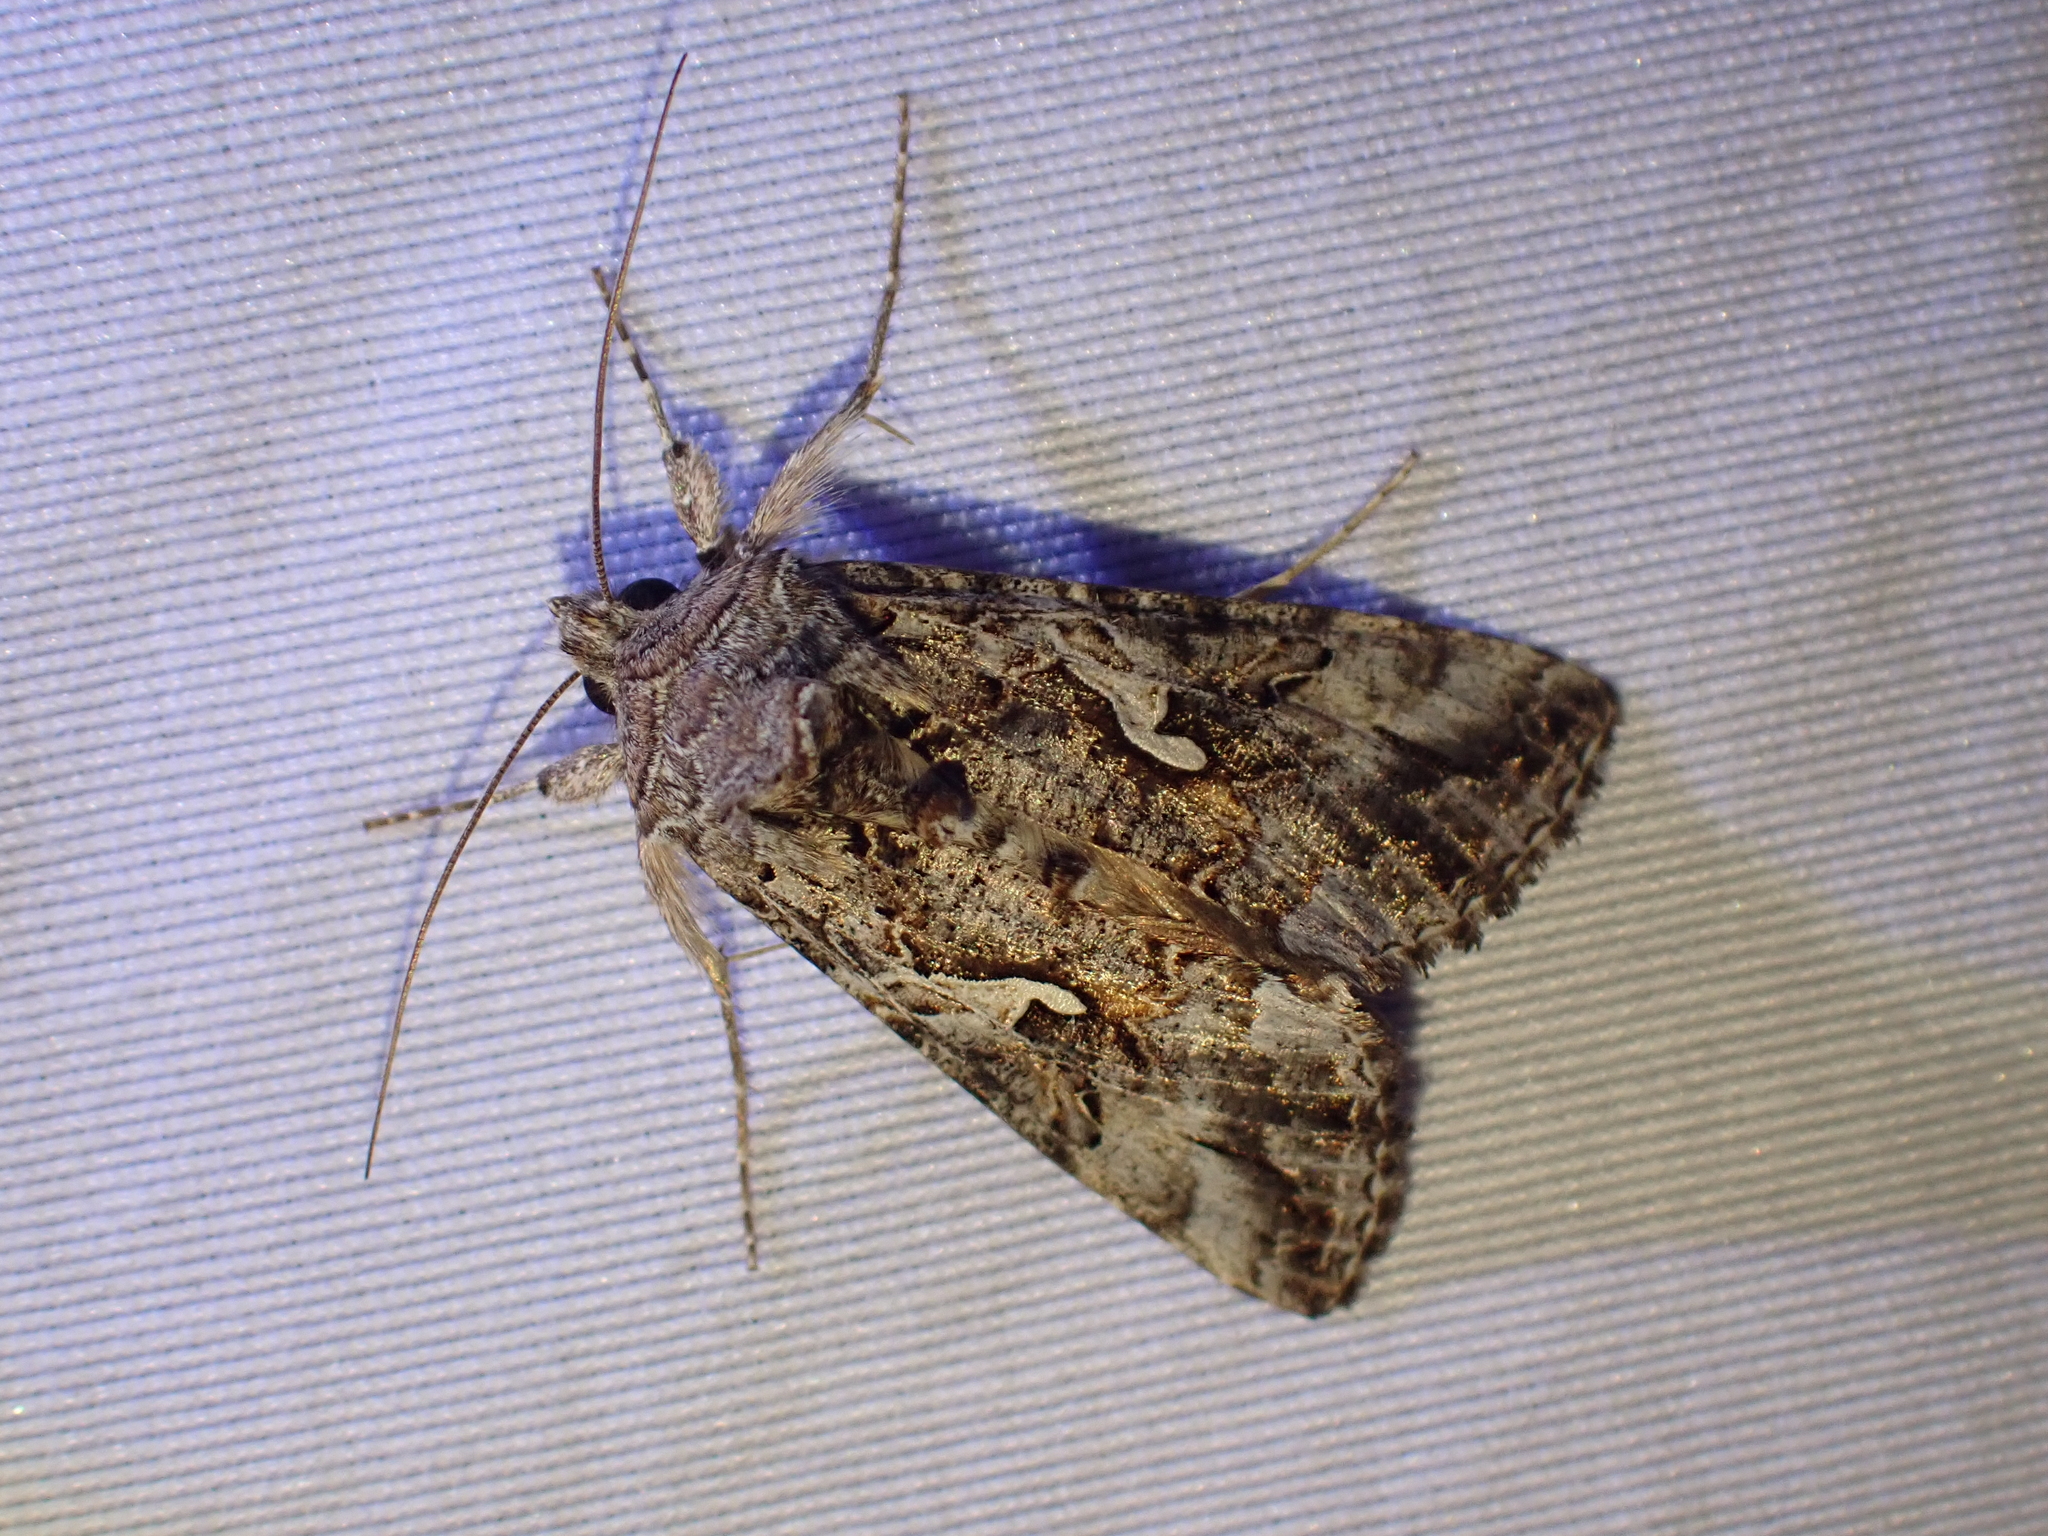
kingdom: Animalia
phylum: Arthropoda
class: Insecta
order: Lepidoptera
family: Noctuidae
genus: Autographa
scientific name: Autographa californica
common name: Alfalfa looper
